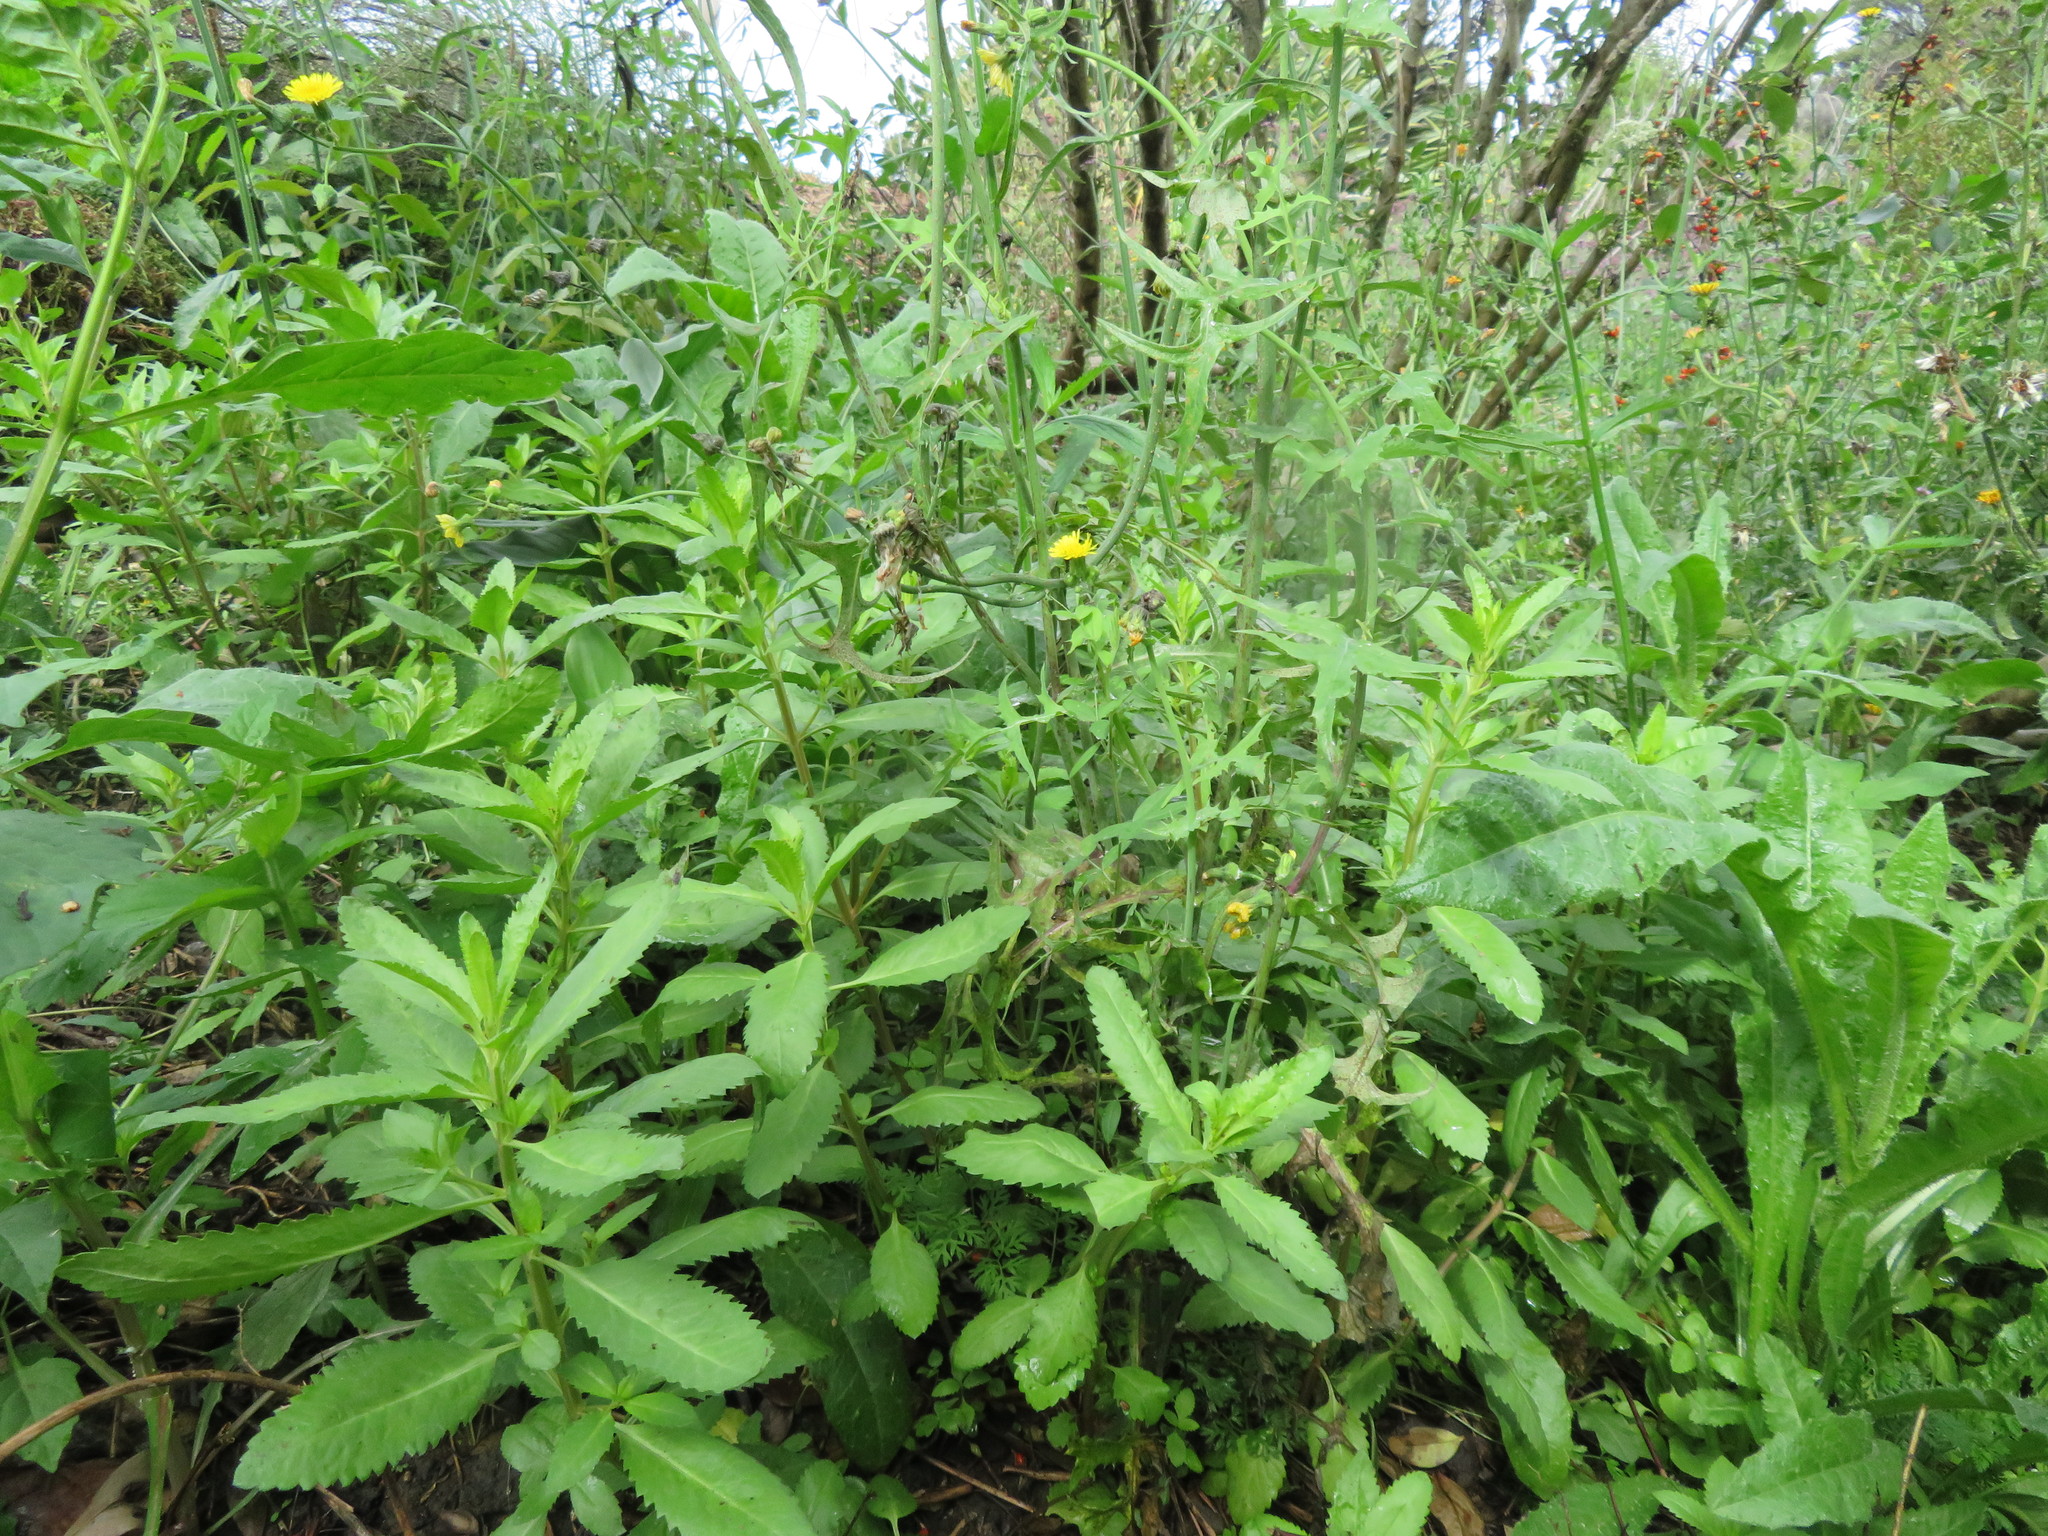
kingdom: Plantae
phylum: Tracheophyta
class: Magnoliopsida
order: Asterales
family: Asteraceae
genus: Sonchus
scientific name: Sonchus oleraceus
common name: Common sowthistle
